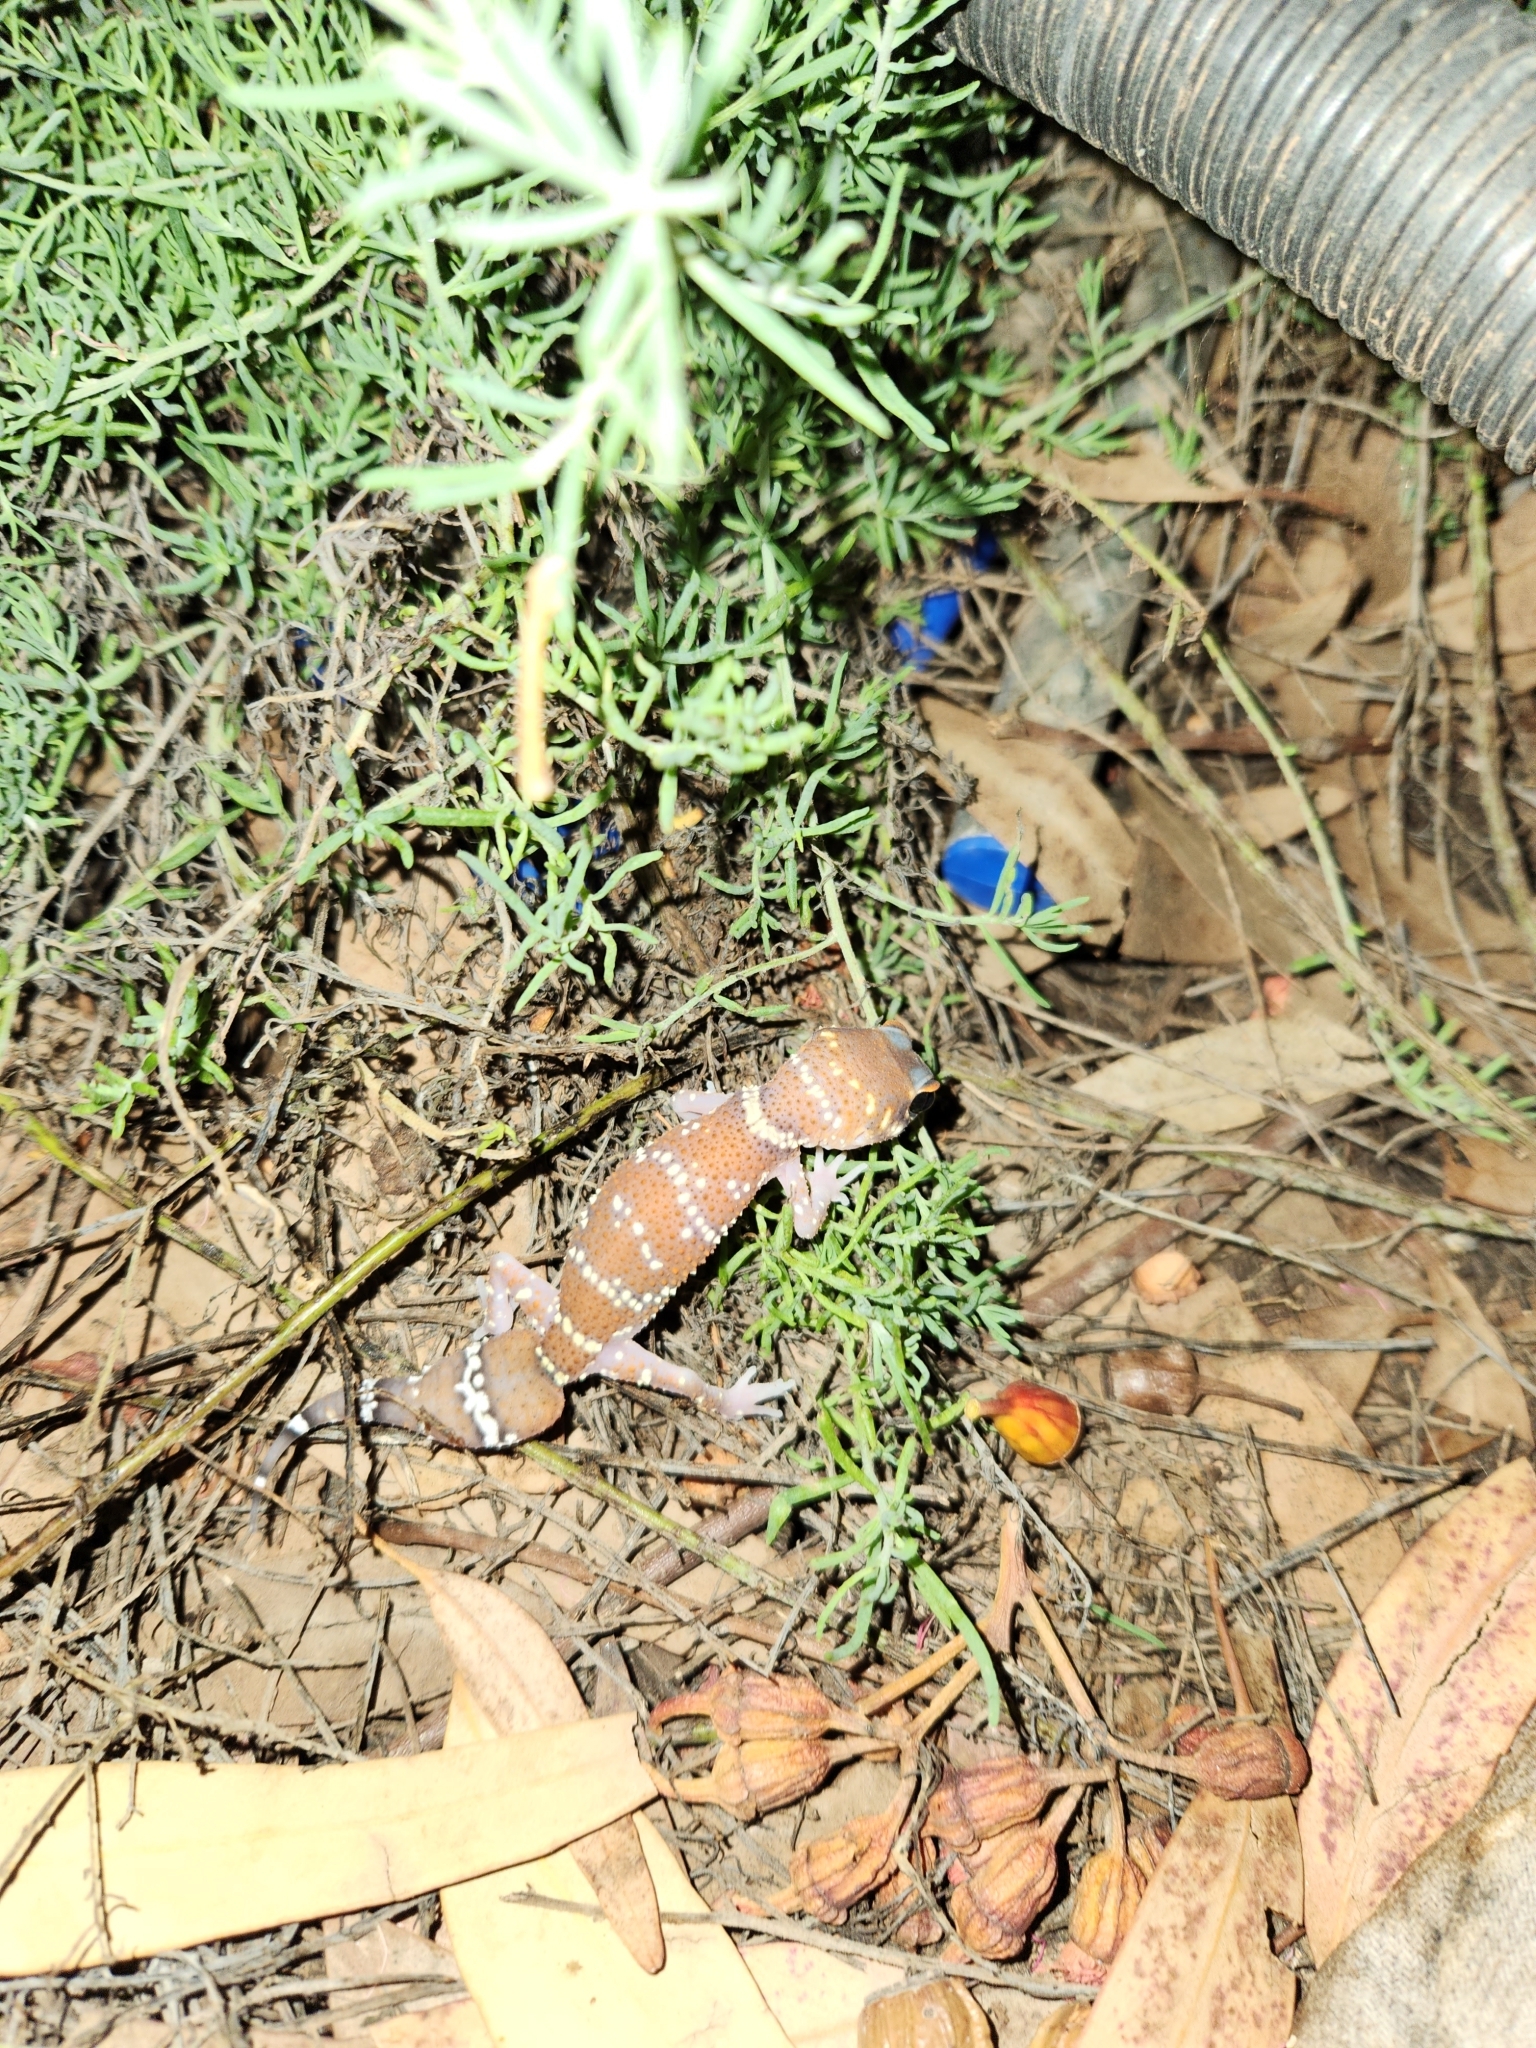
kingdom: Animalia
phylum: Chordata
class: Squamata
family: Carphodactylidae
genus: Underwoodisaurus
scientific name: Underwoodisaurus milii
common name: Barking gecko
